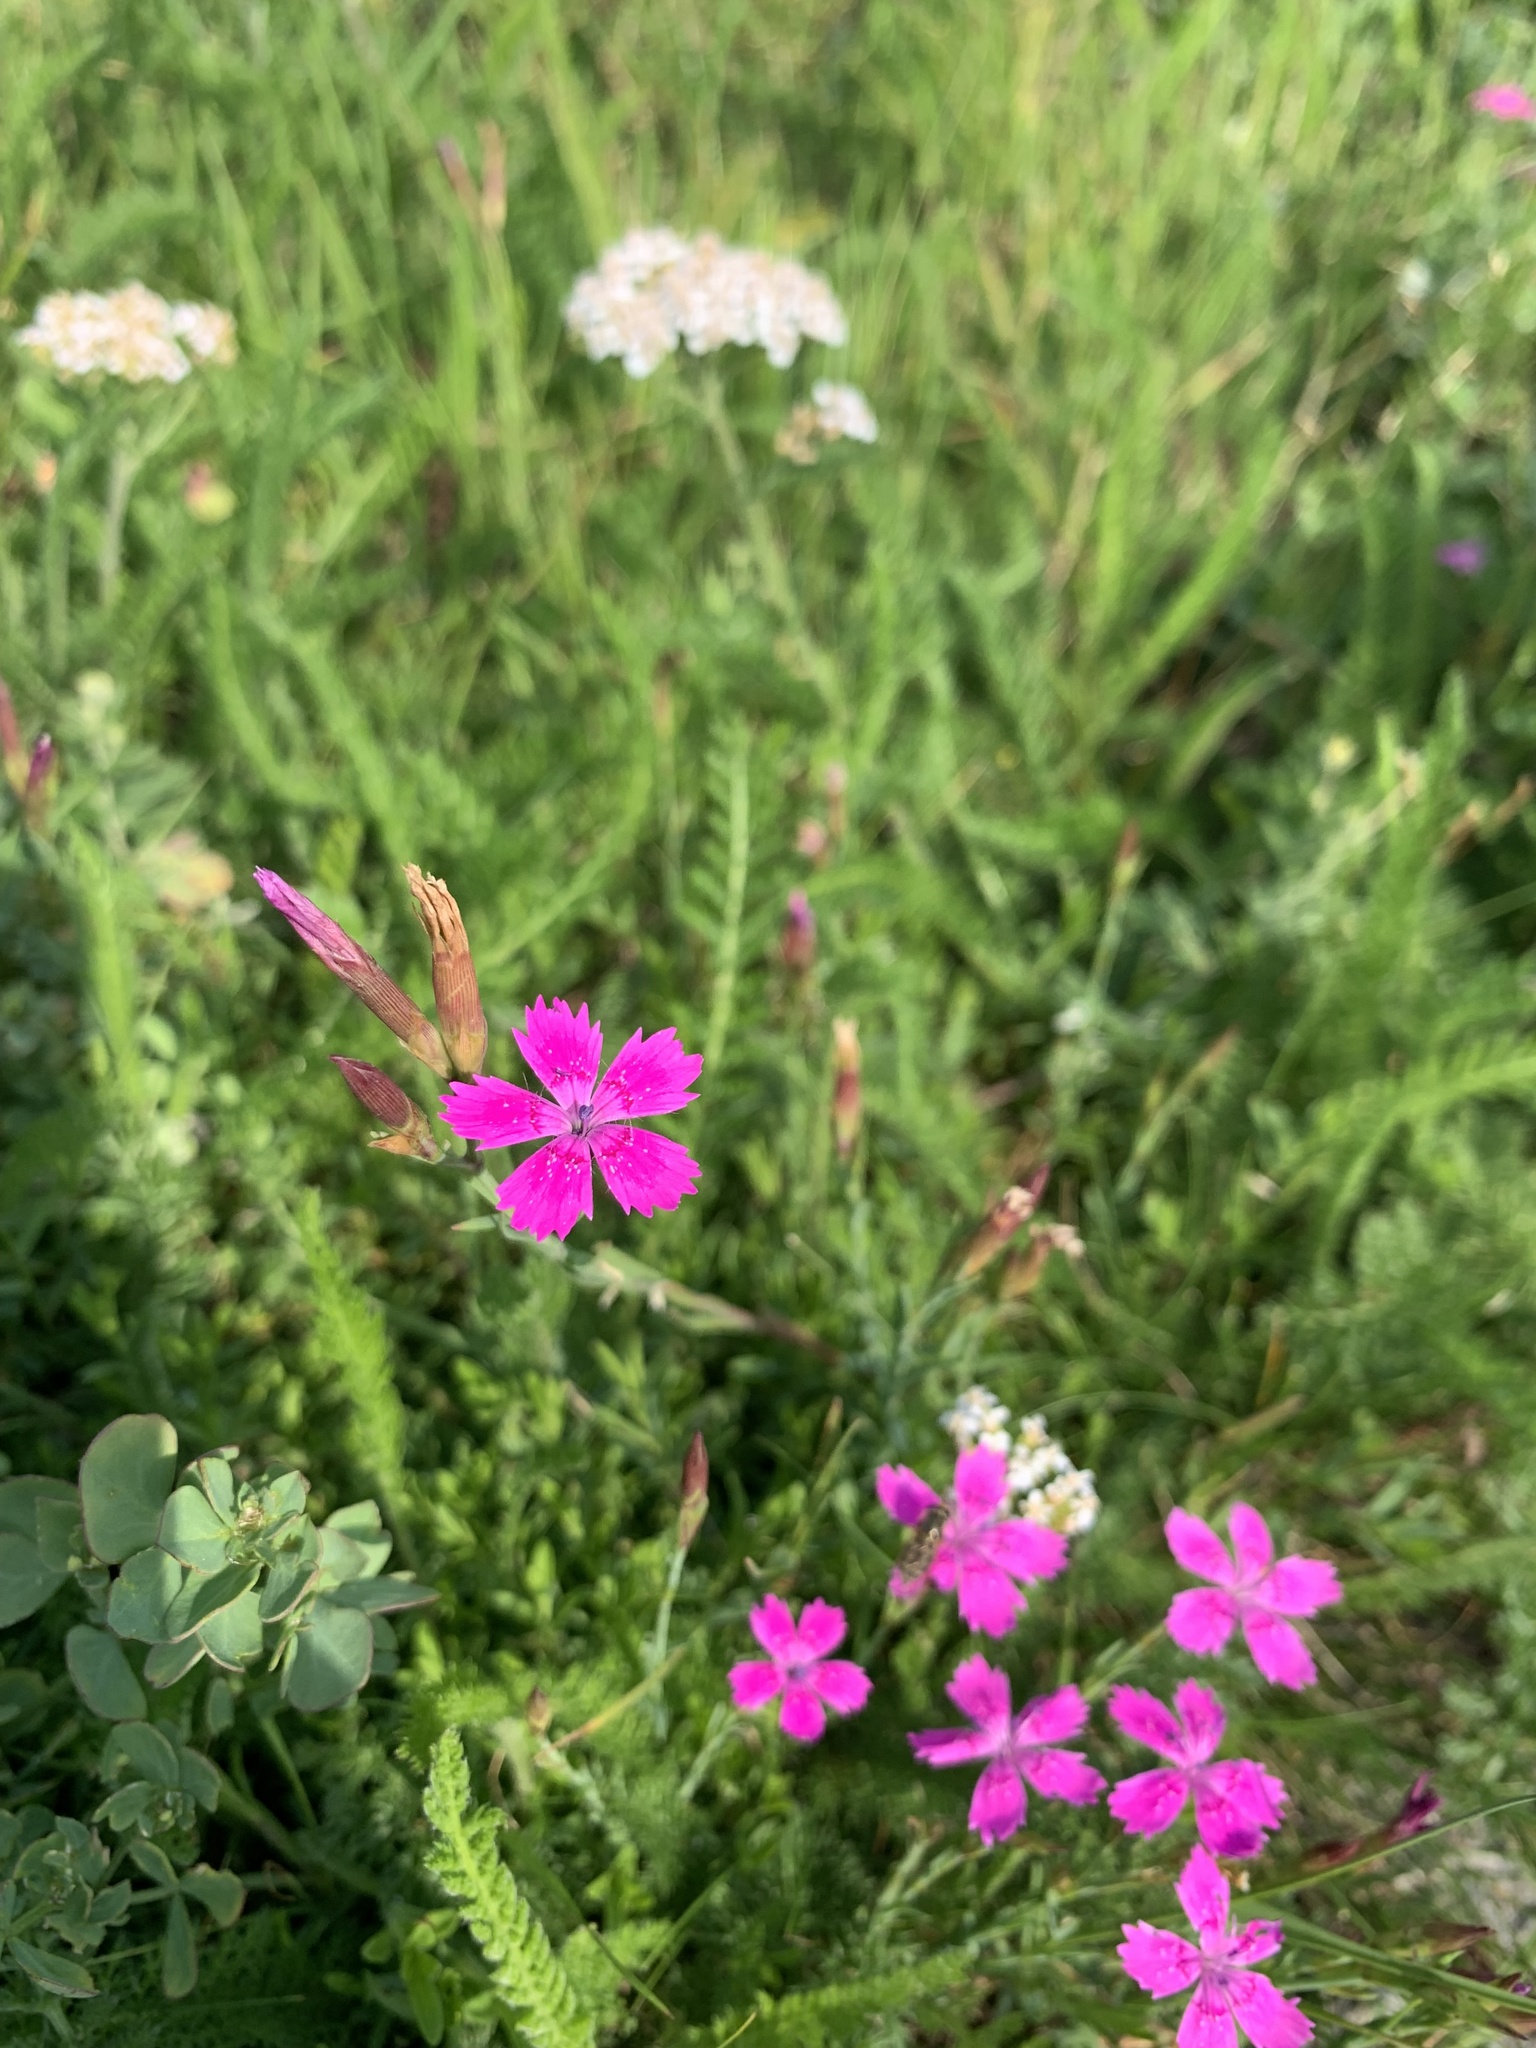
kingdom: Plantae
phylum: Tracheophyta
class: Magnoliopsida
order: Caryophyllales
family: Caryophyllaceae
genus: Dianthus
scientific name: Dianthus deltoides
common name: Maiden pink
